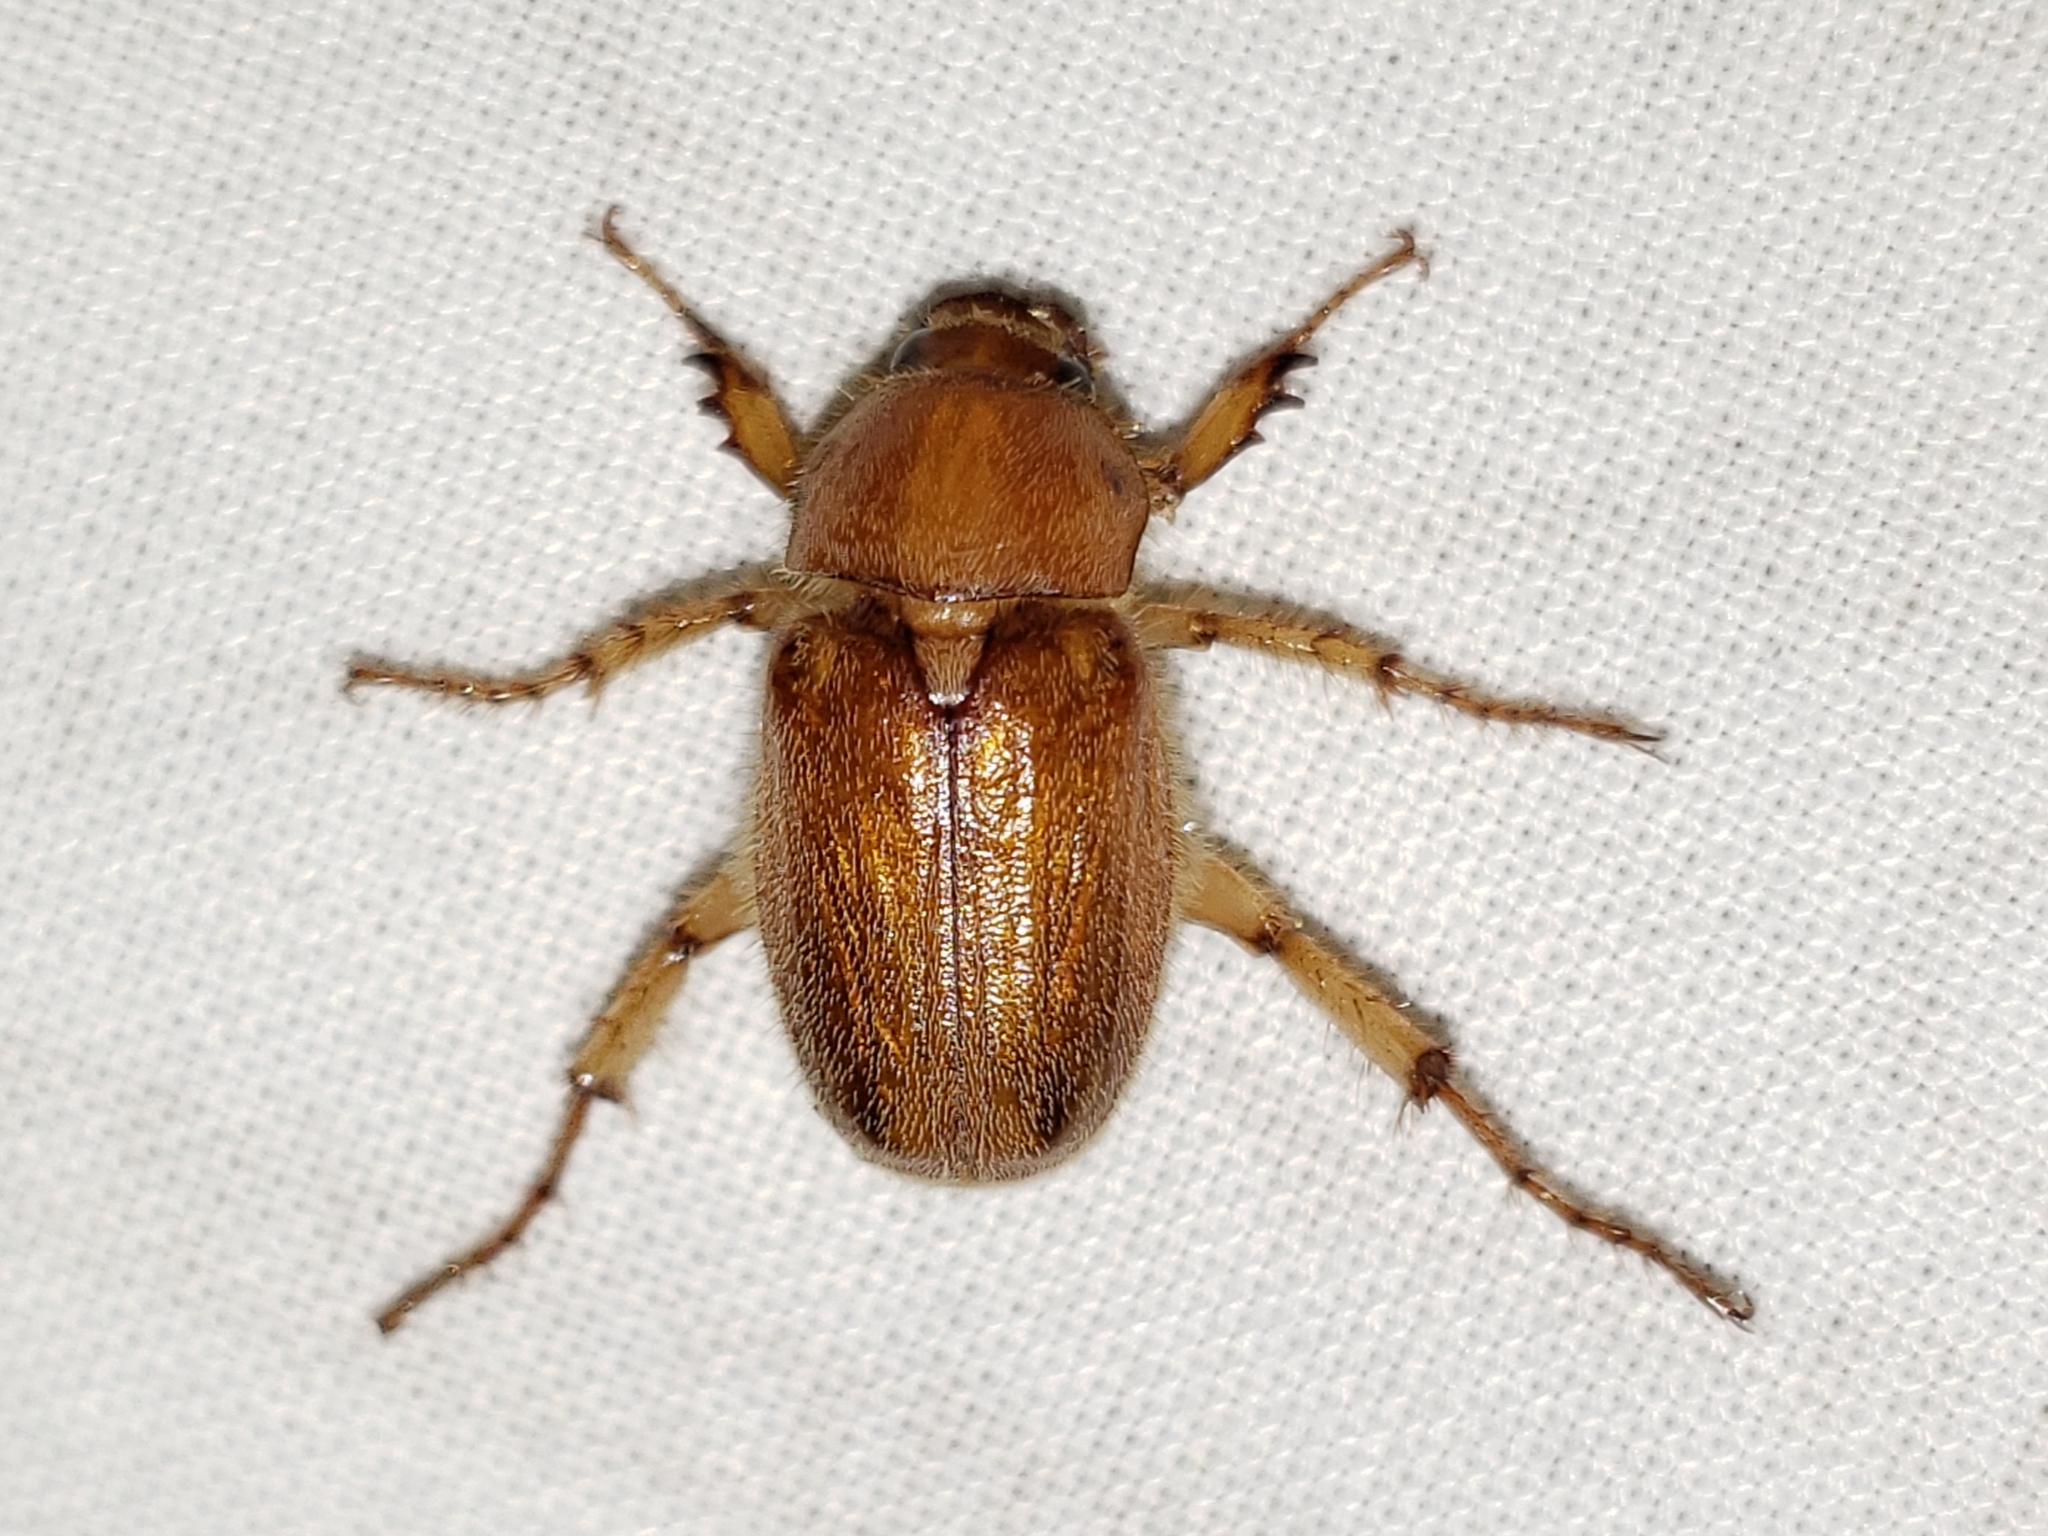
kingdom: Animalia
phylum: Arthropoda
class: Insecta
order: Coleoptera
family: Scarabaeidae
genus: Plectris
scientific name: Plectris aliena
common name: Scarab beetle
